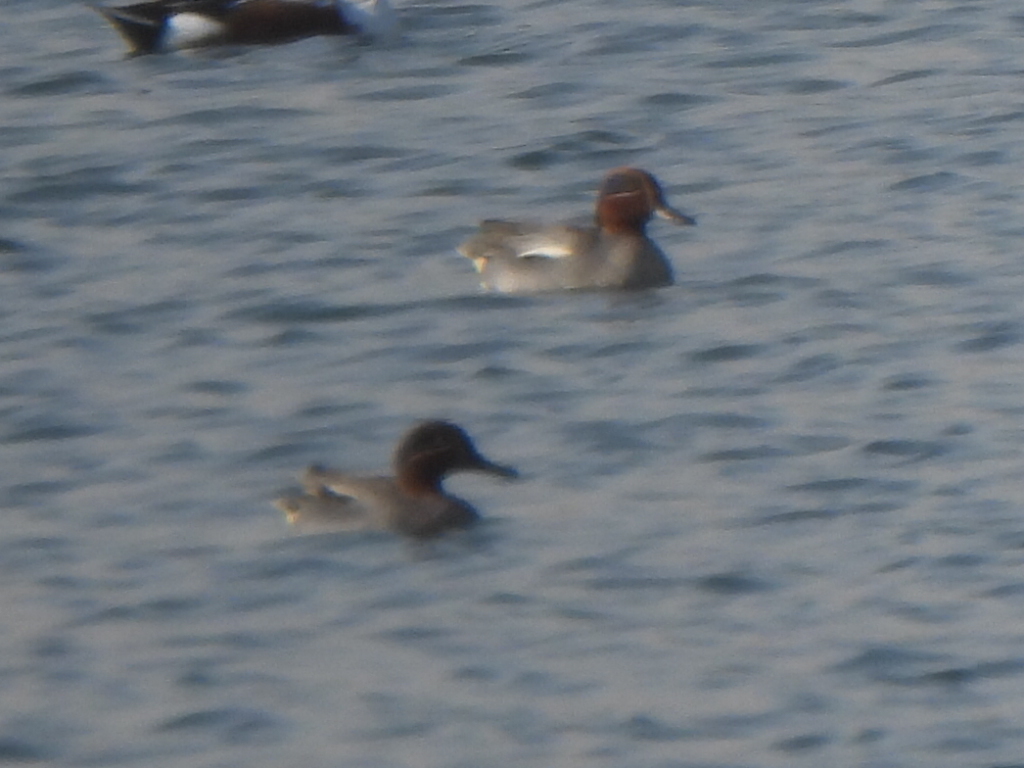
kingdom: Animalia
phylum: Chordata
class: Aves
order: Anseriformes
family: Anatidae
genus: Anas
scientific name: Anas crecca
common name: Eurasian teal
